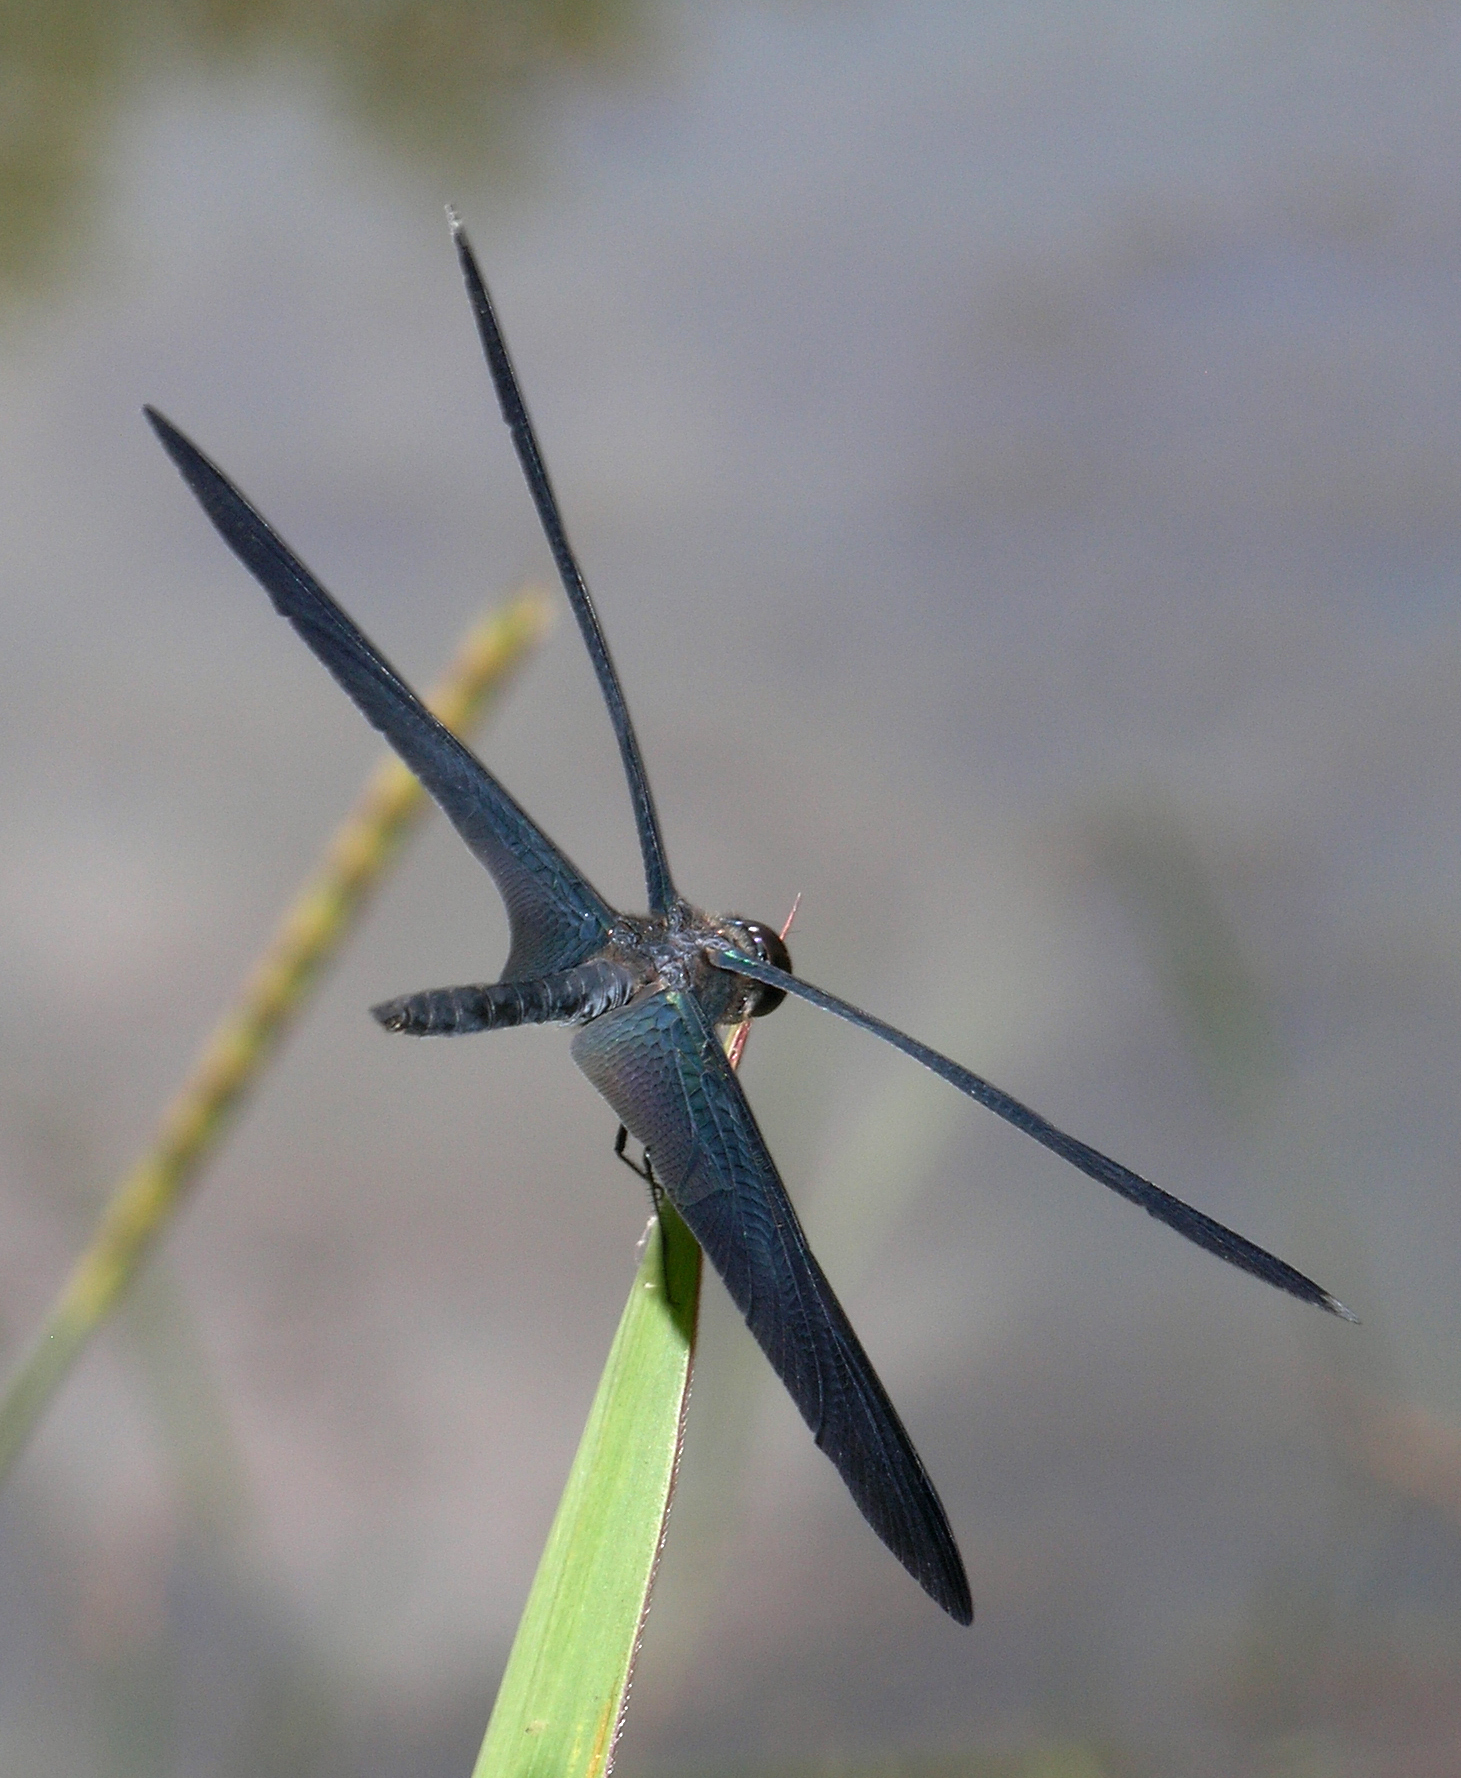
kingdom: Animalia
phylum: Arthropoda
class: Insecta
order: Odonata
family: Libellulidae
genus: Rhyothemis
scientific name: Rhyothemis plutonia
